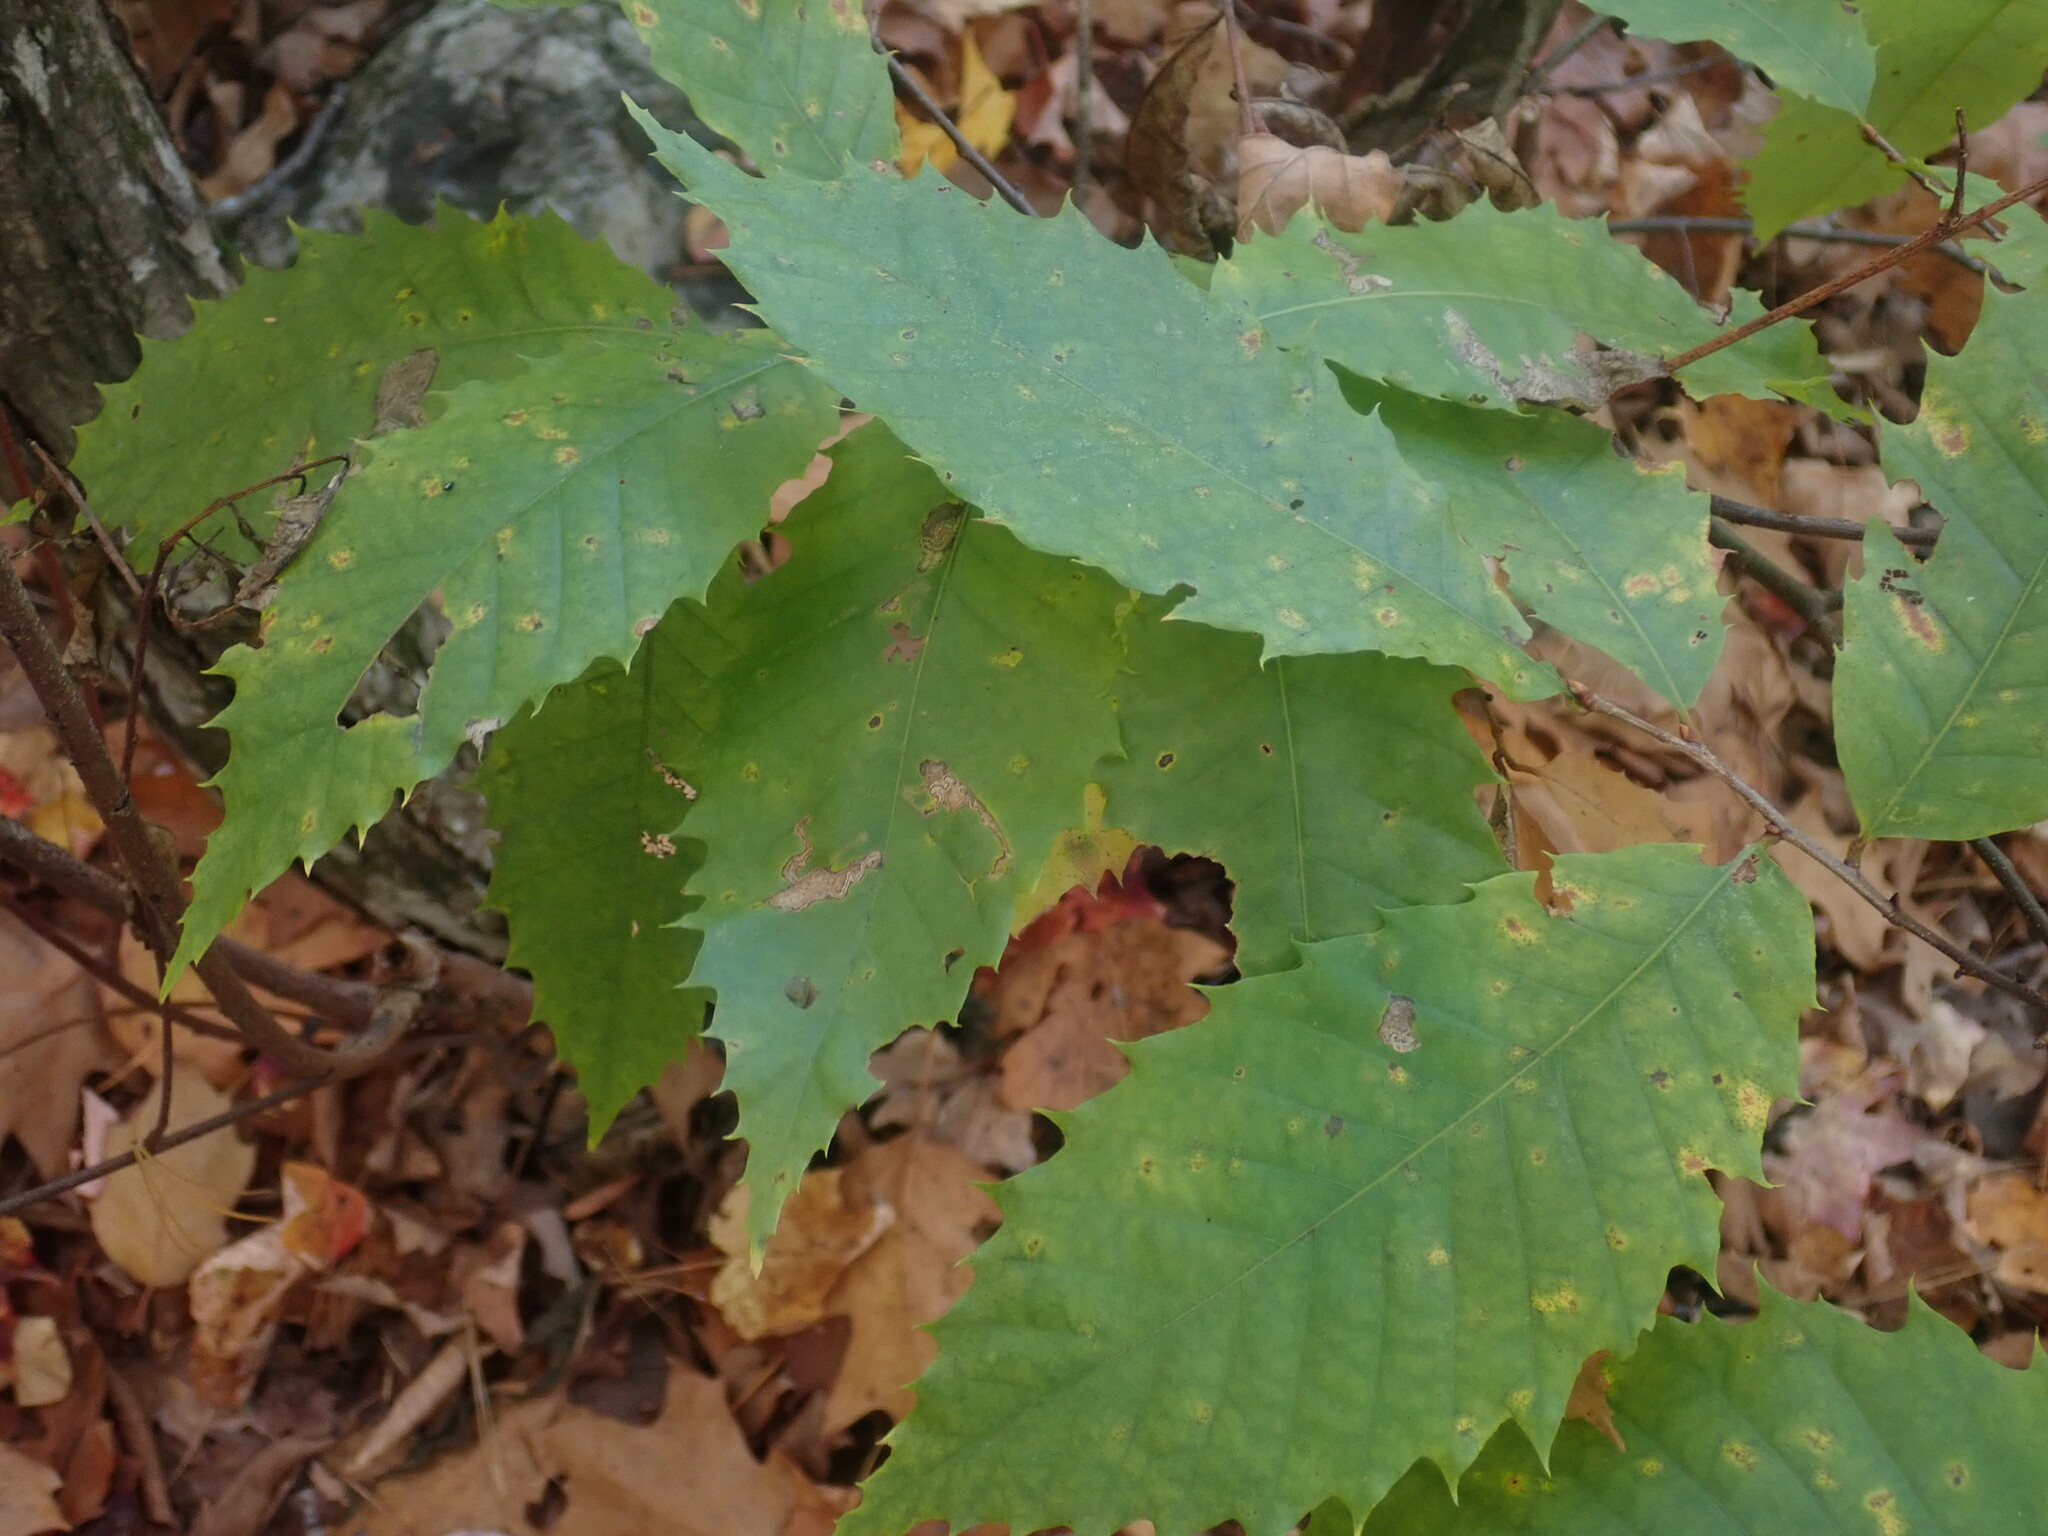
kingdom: Plantae
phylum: Tracheophyta
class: Magnoliopsida
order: Fagales
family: Fagaceae
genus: Castanea
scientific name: Castanea dentata
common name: American chestnut
